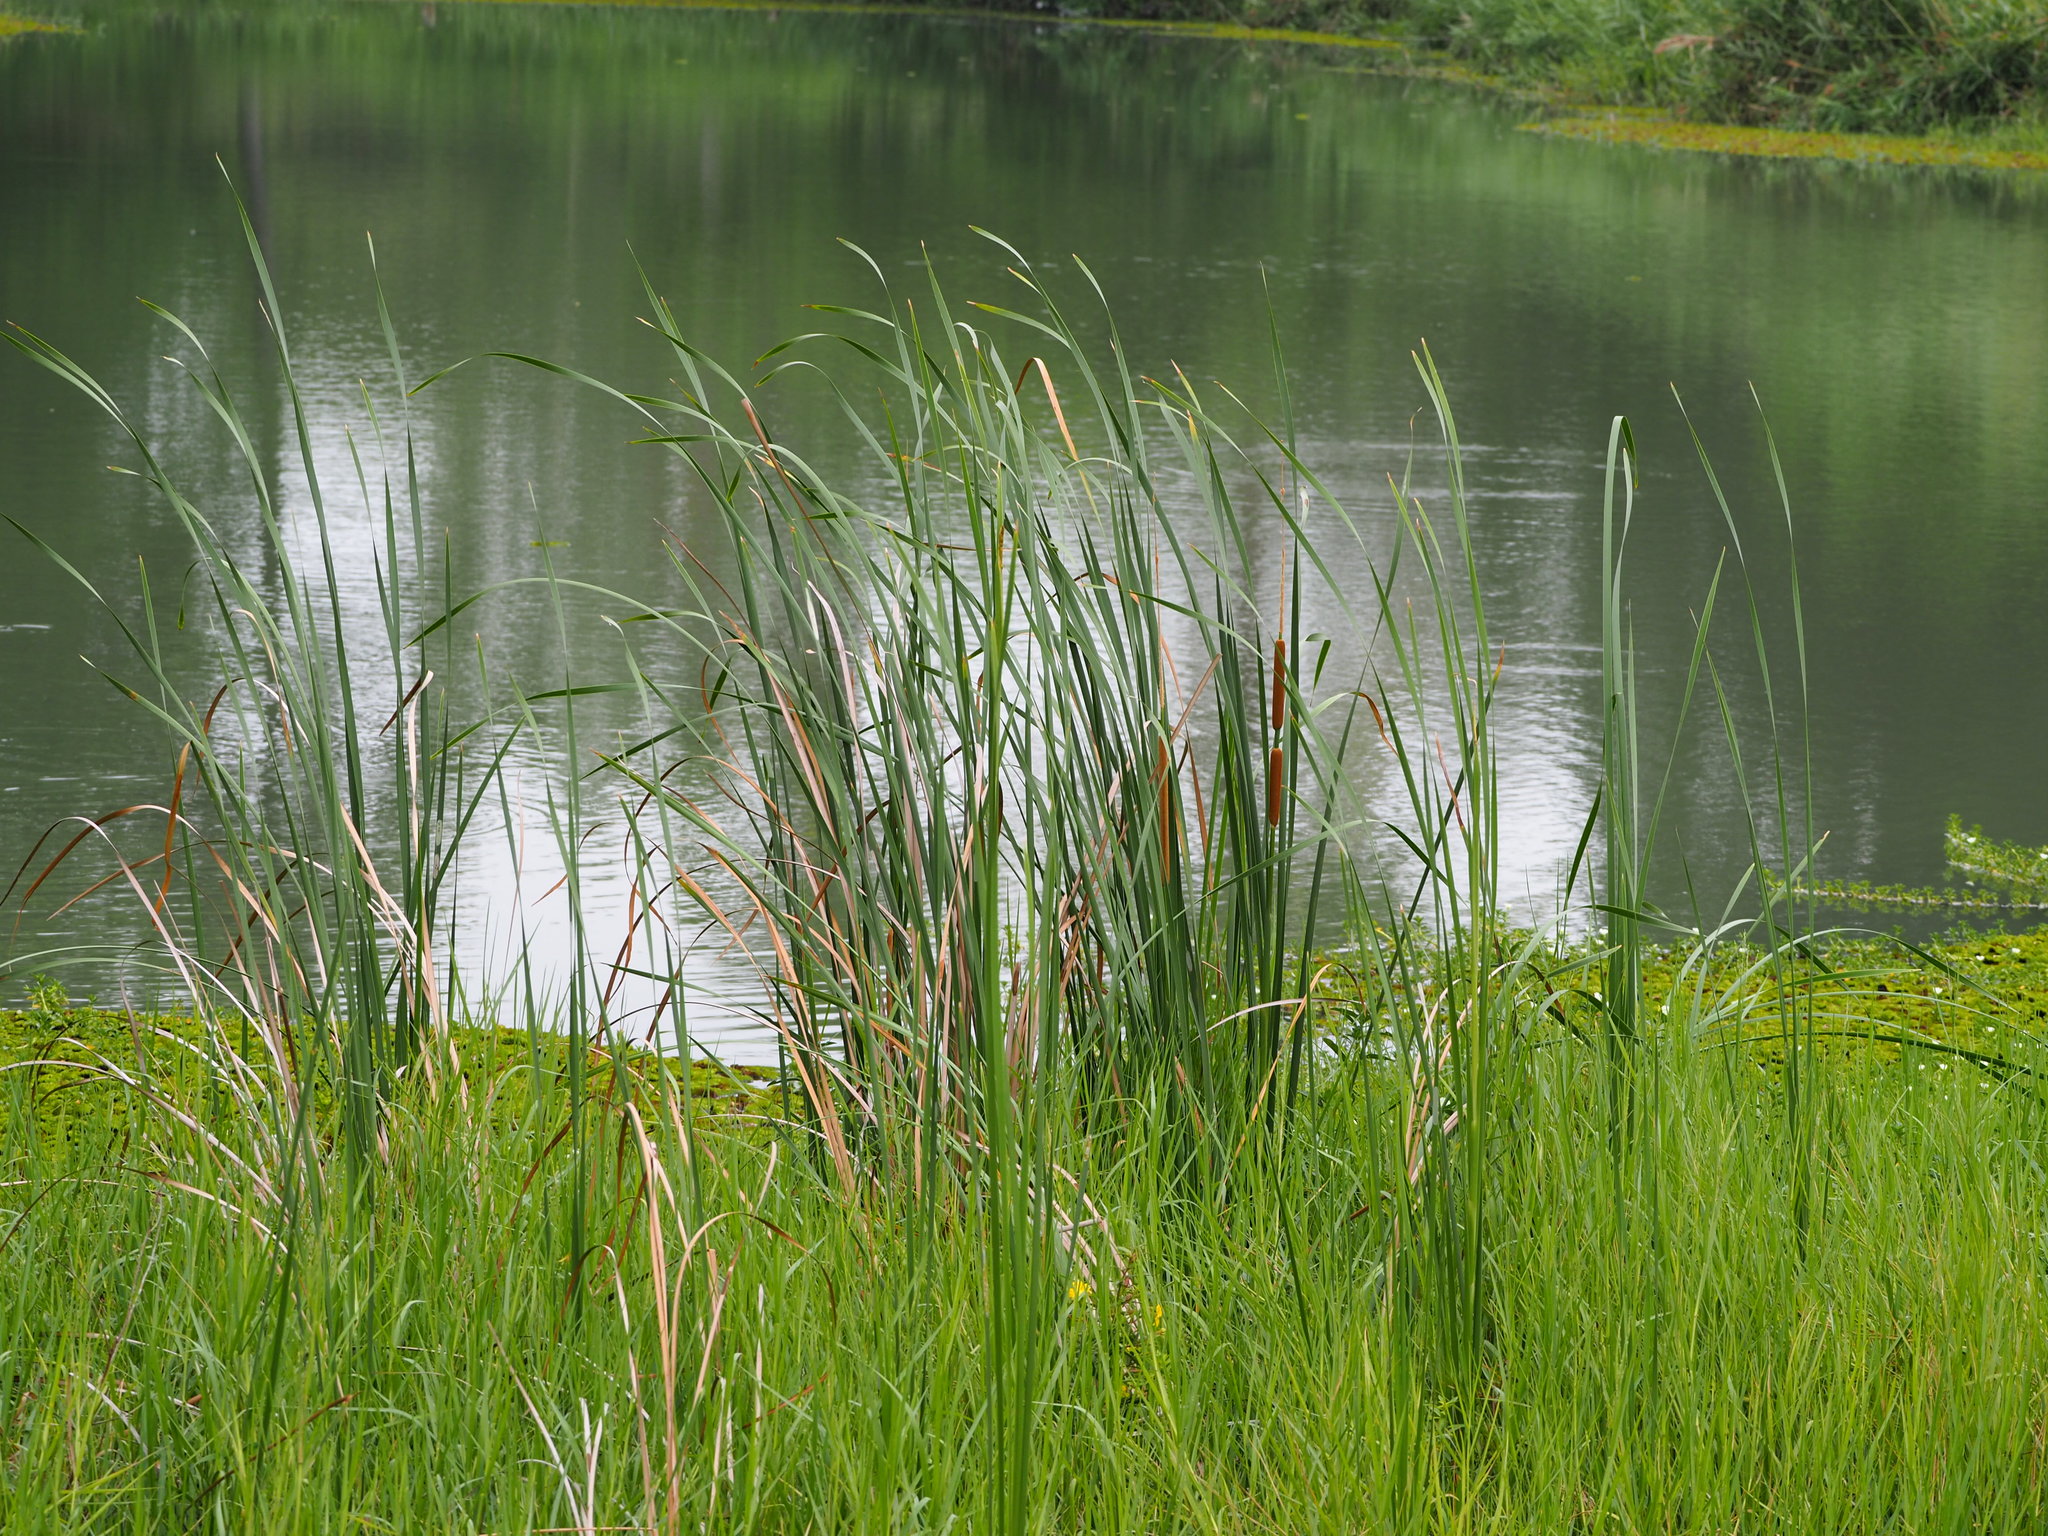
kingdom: Plantae
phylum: Tracheophyta
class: Liliopsida
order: Poales
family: Typhaceae
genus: Typha
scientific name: Typha angustifolia
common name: Lesser bulrush
